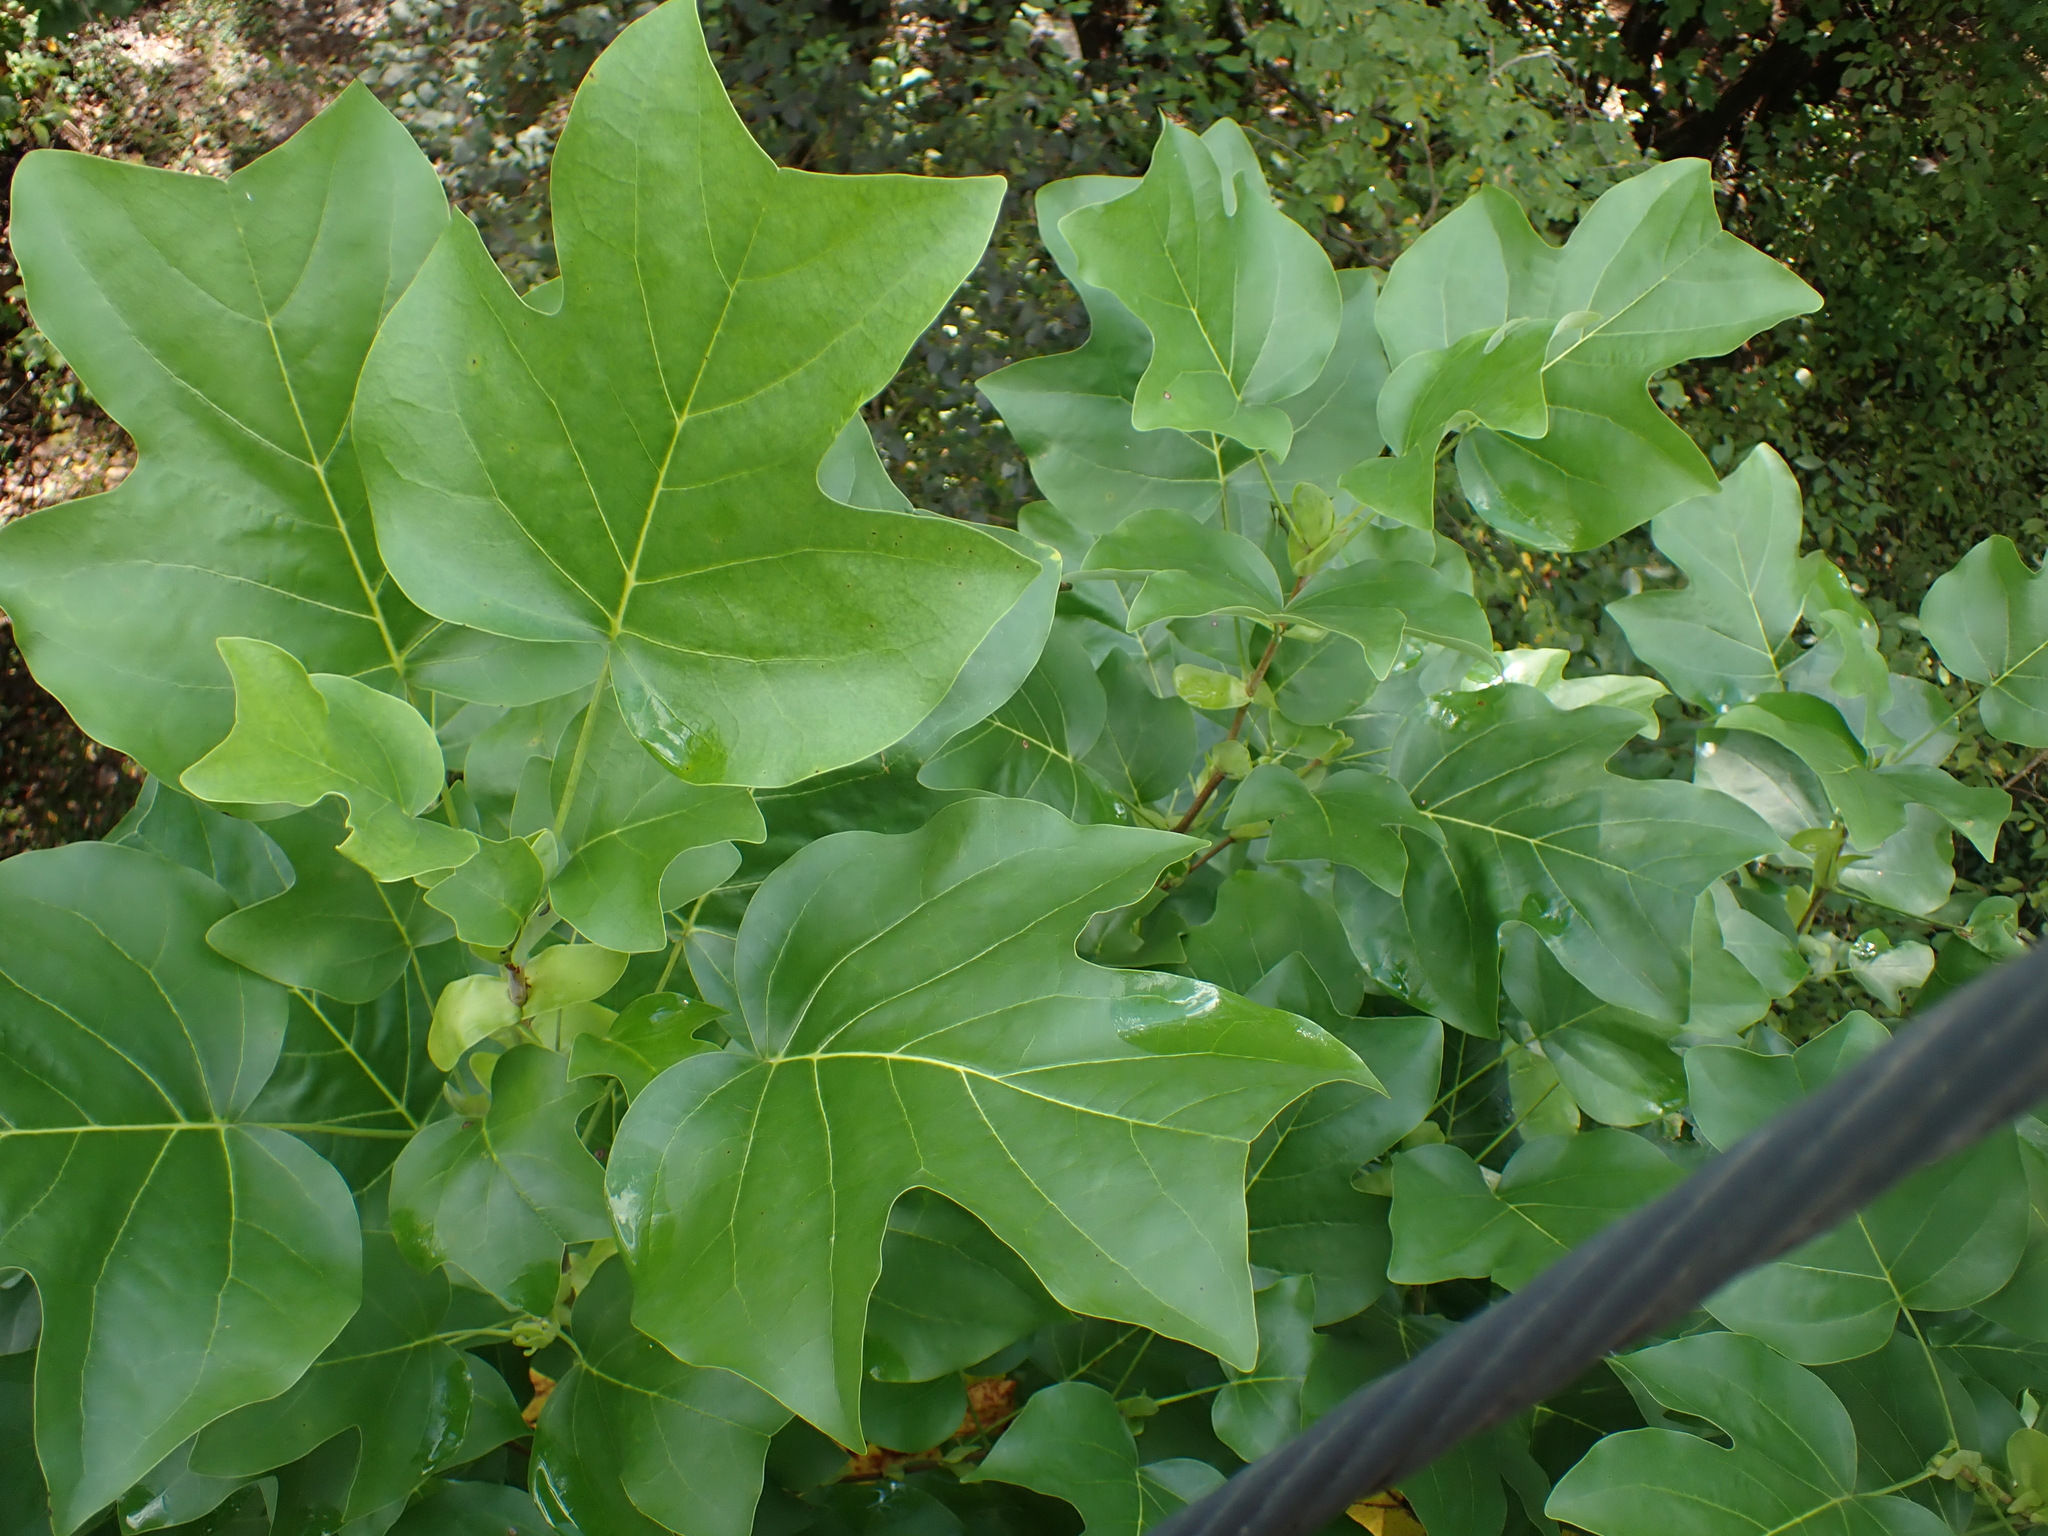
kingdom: Plantae
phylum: Tracheophyta
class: Magnoliopsida
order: Magnoliales
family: Magnoliaceae
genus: Liriodendron
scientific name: Liriodendron tulipifera
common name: Tulip tree
